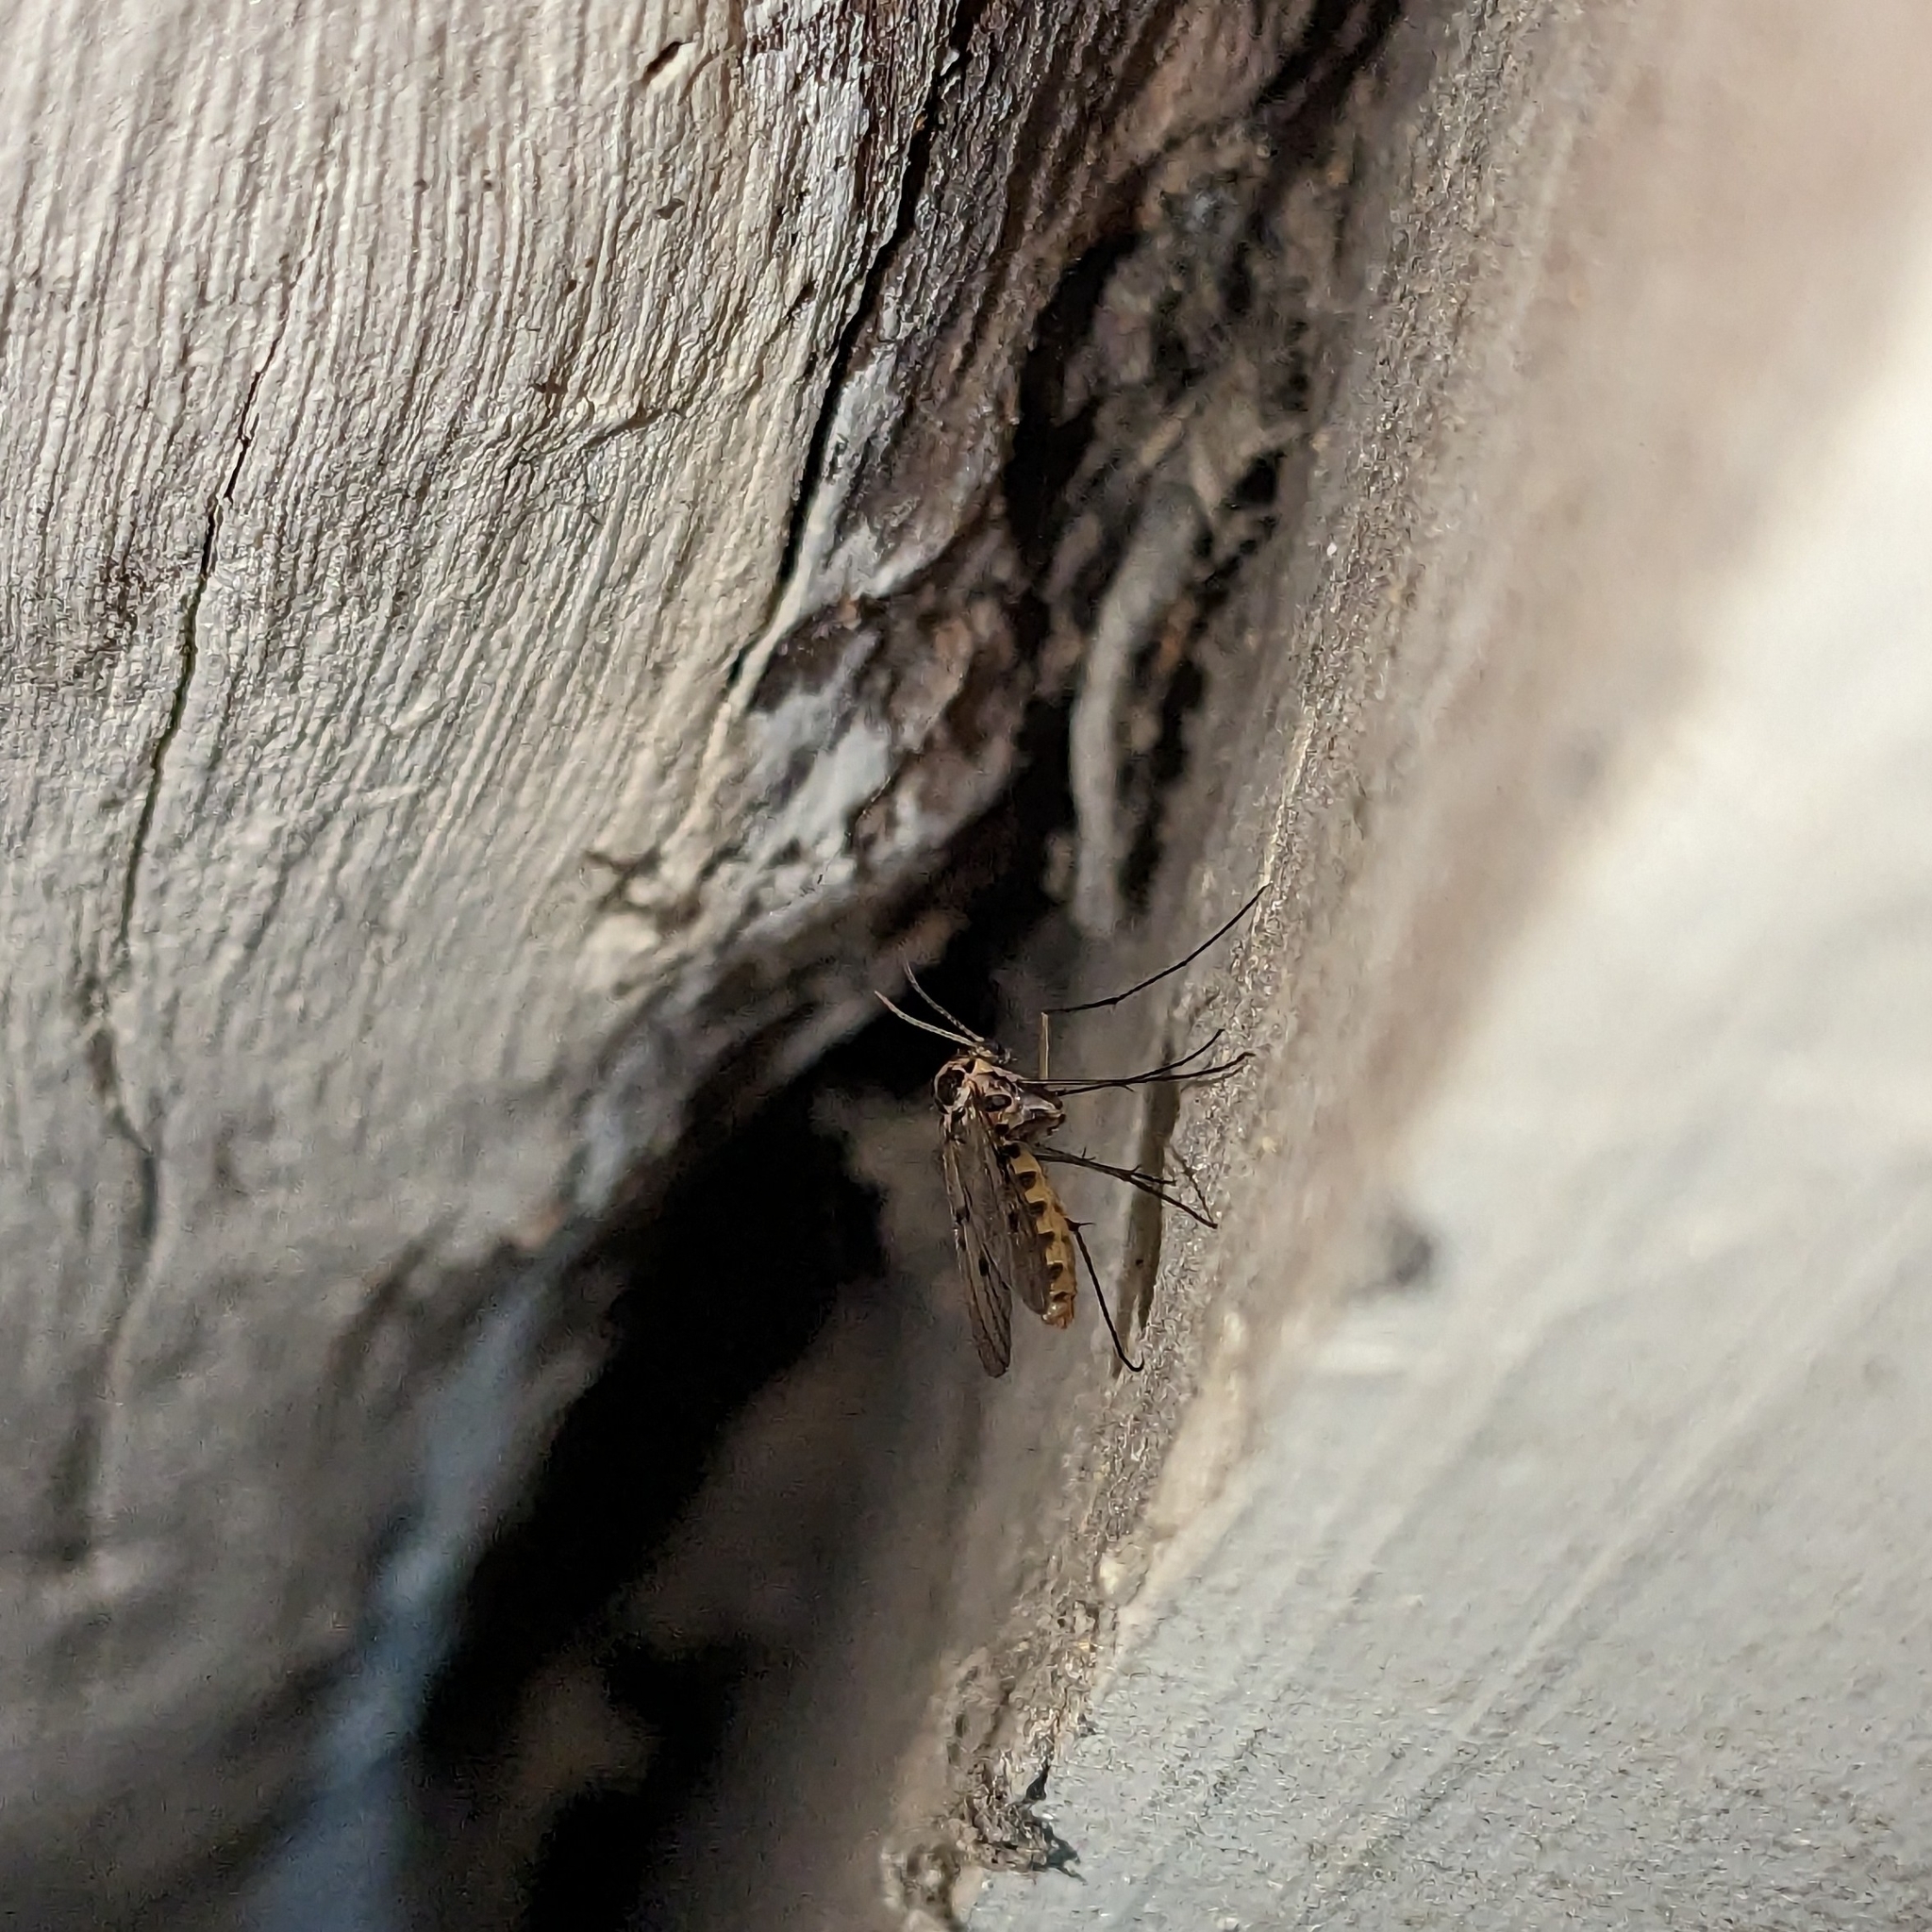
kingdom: Animalia
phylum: Arthropoda
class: Insecta
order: Diptera
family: Mycetophilidae
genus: Mycomya
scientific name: Mycomya quadrimaculata
